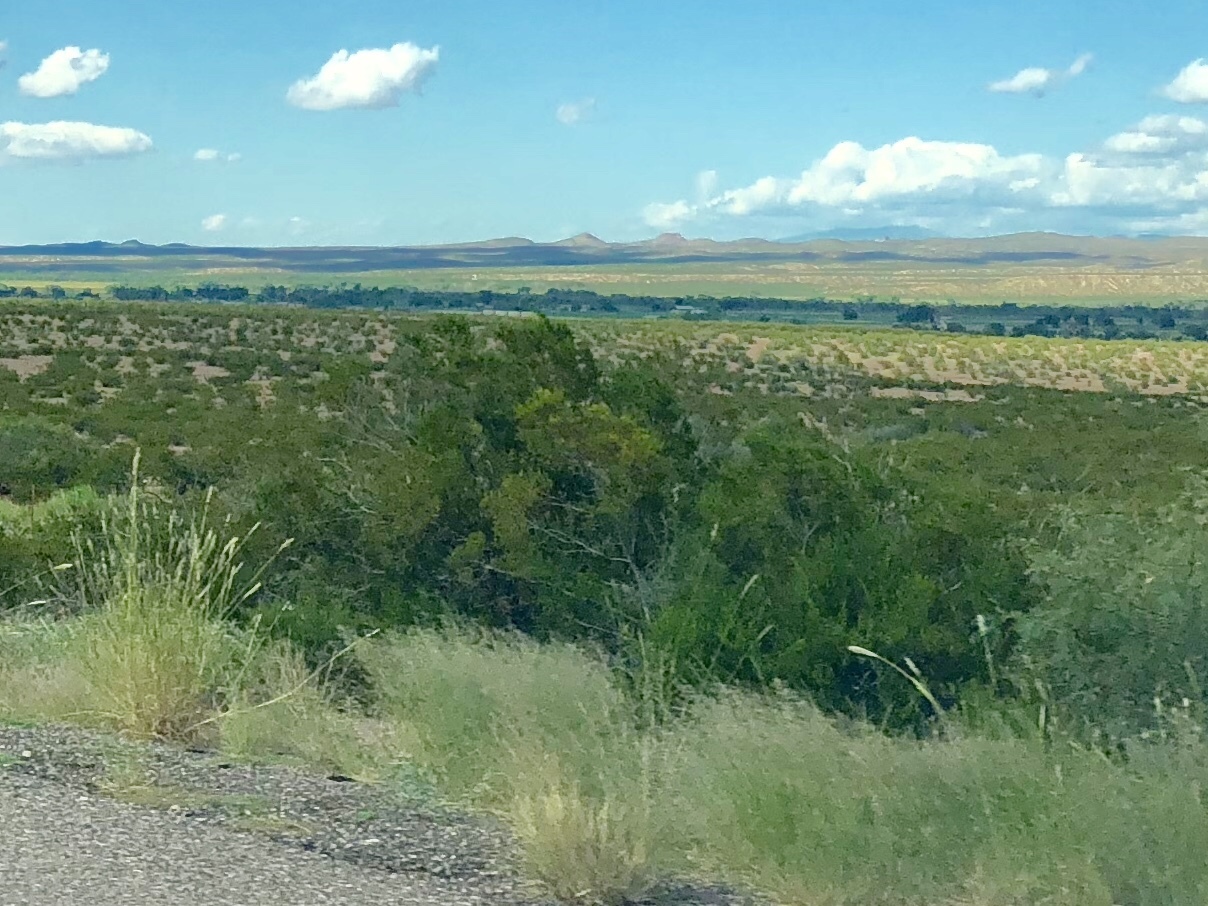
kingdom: Plantae
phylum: Tracheophyta
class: Magnoliopsida
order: Zygophyllales
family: Zygophyllaceae
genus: Larrea
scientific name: Larrea tridentata
